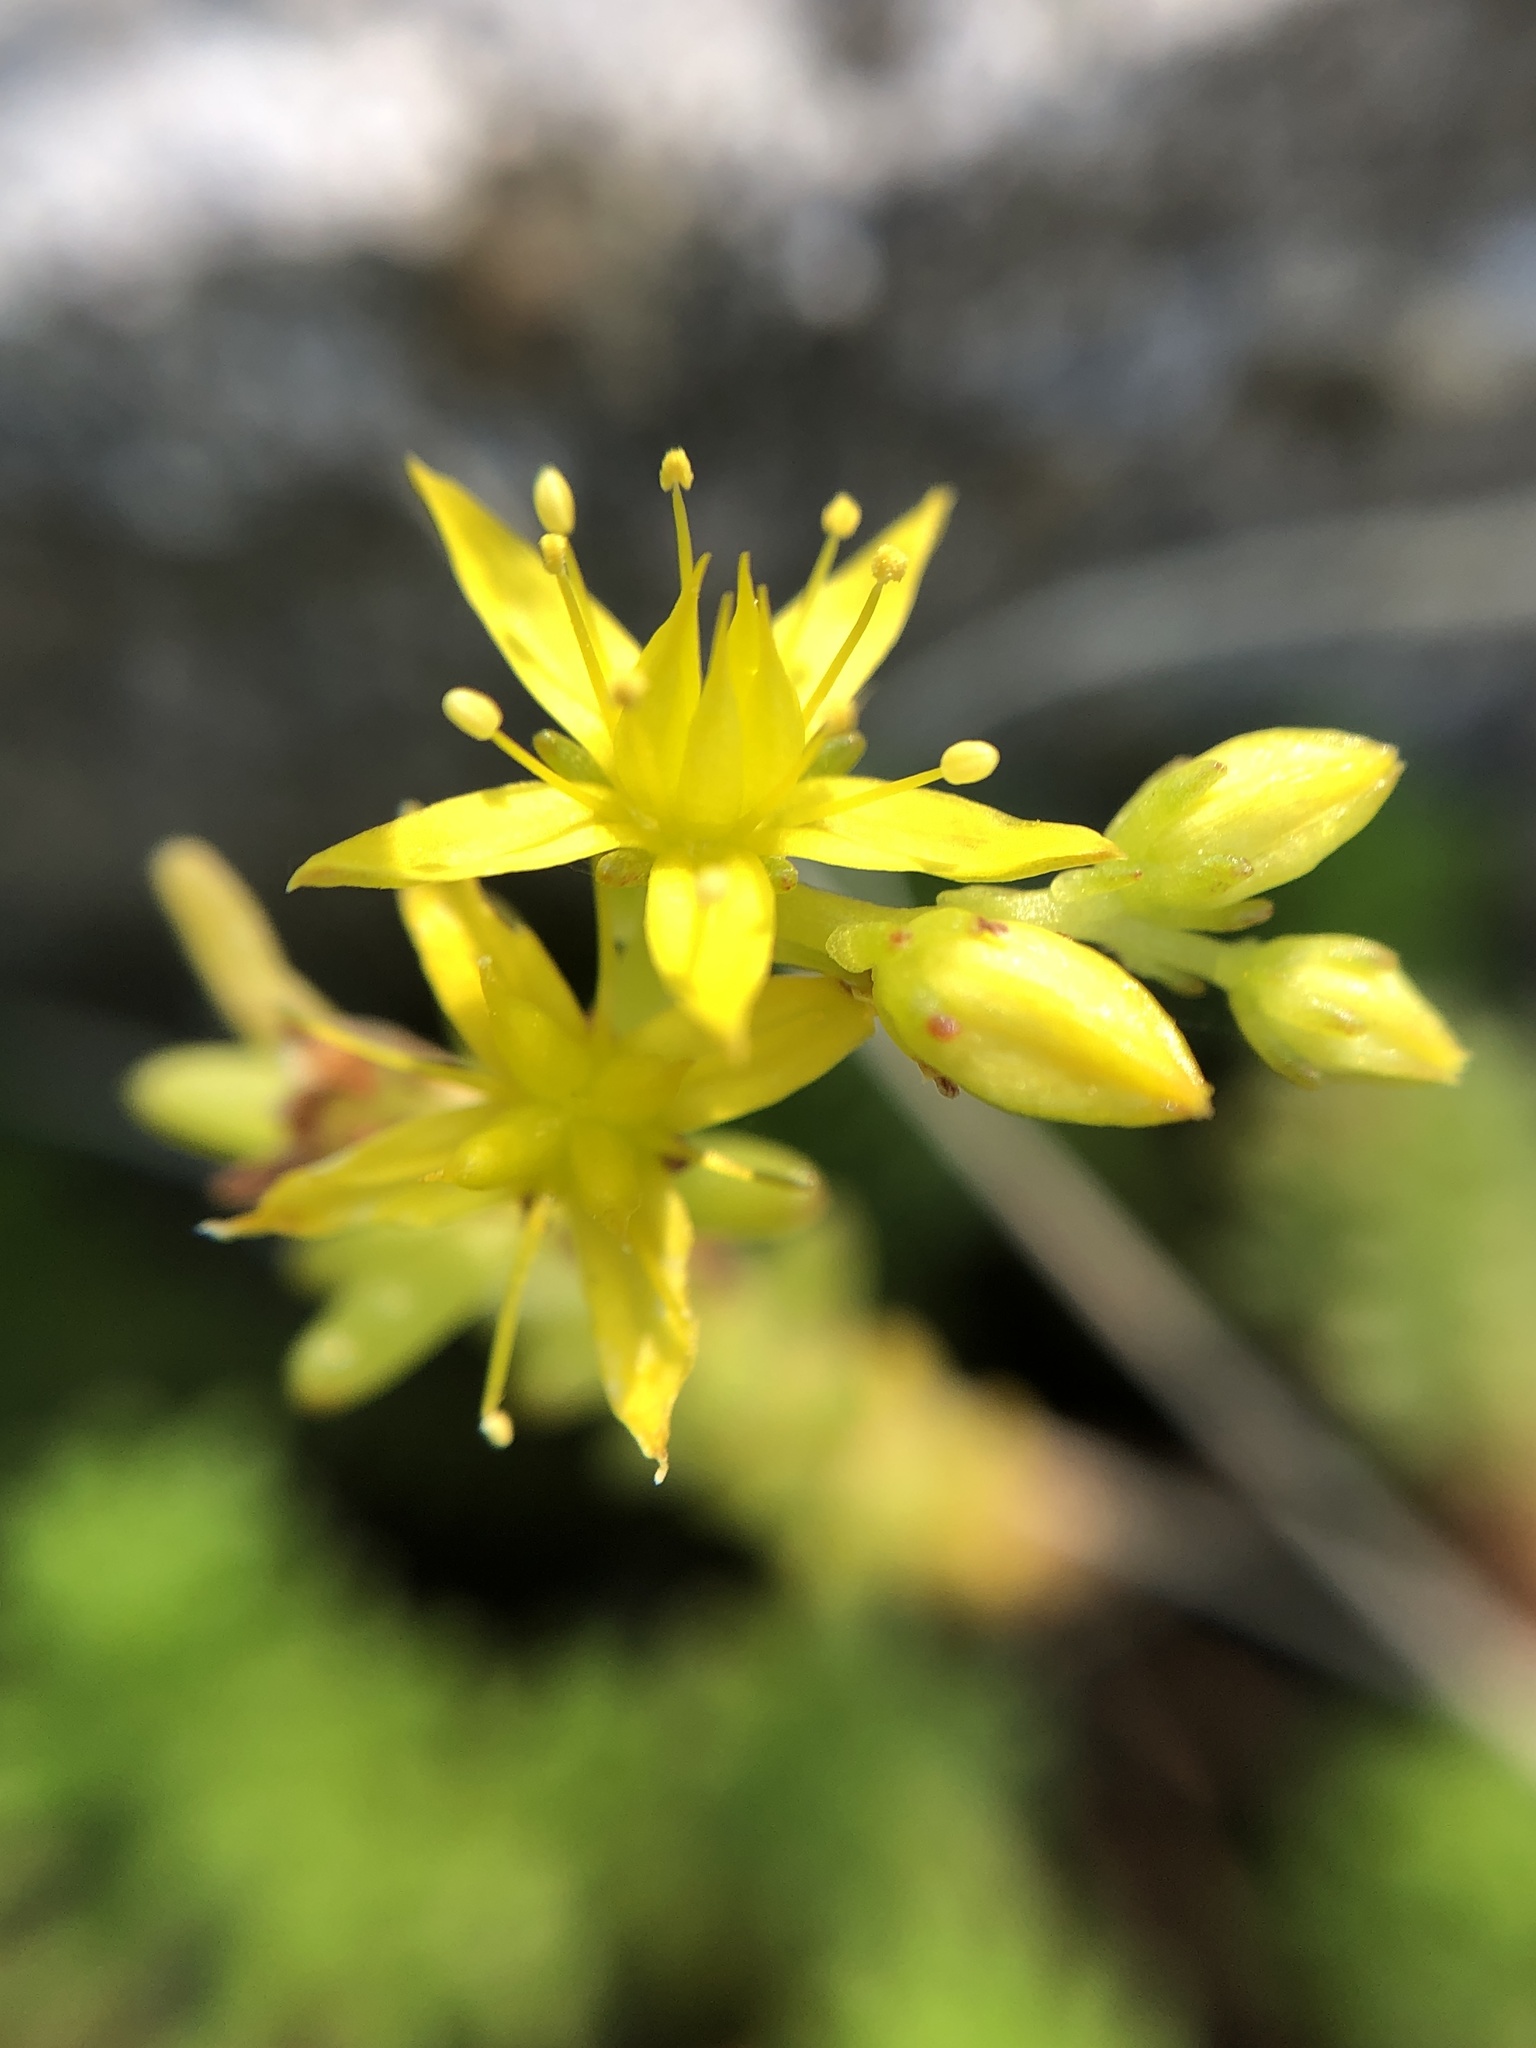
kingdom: Plantae
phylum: Tracheophyta
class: Magnoliopsida
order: Saxifragales
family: Crassulaceae
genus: Sedum
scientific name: Sedum sexangulare
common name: Tasteless stonecrop
